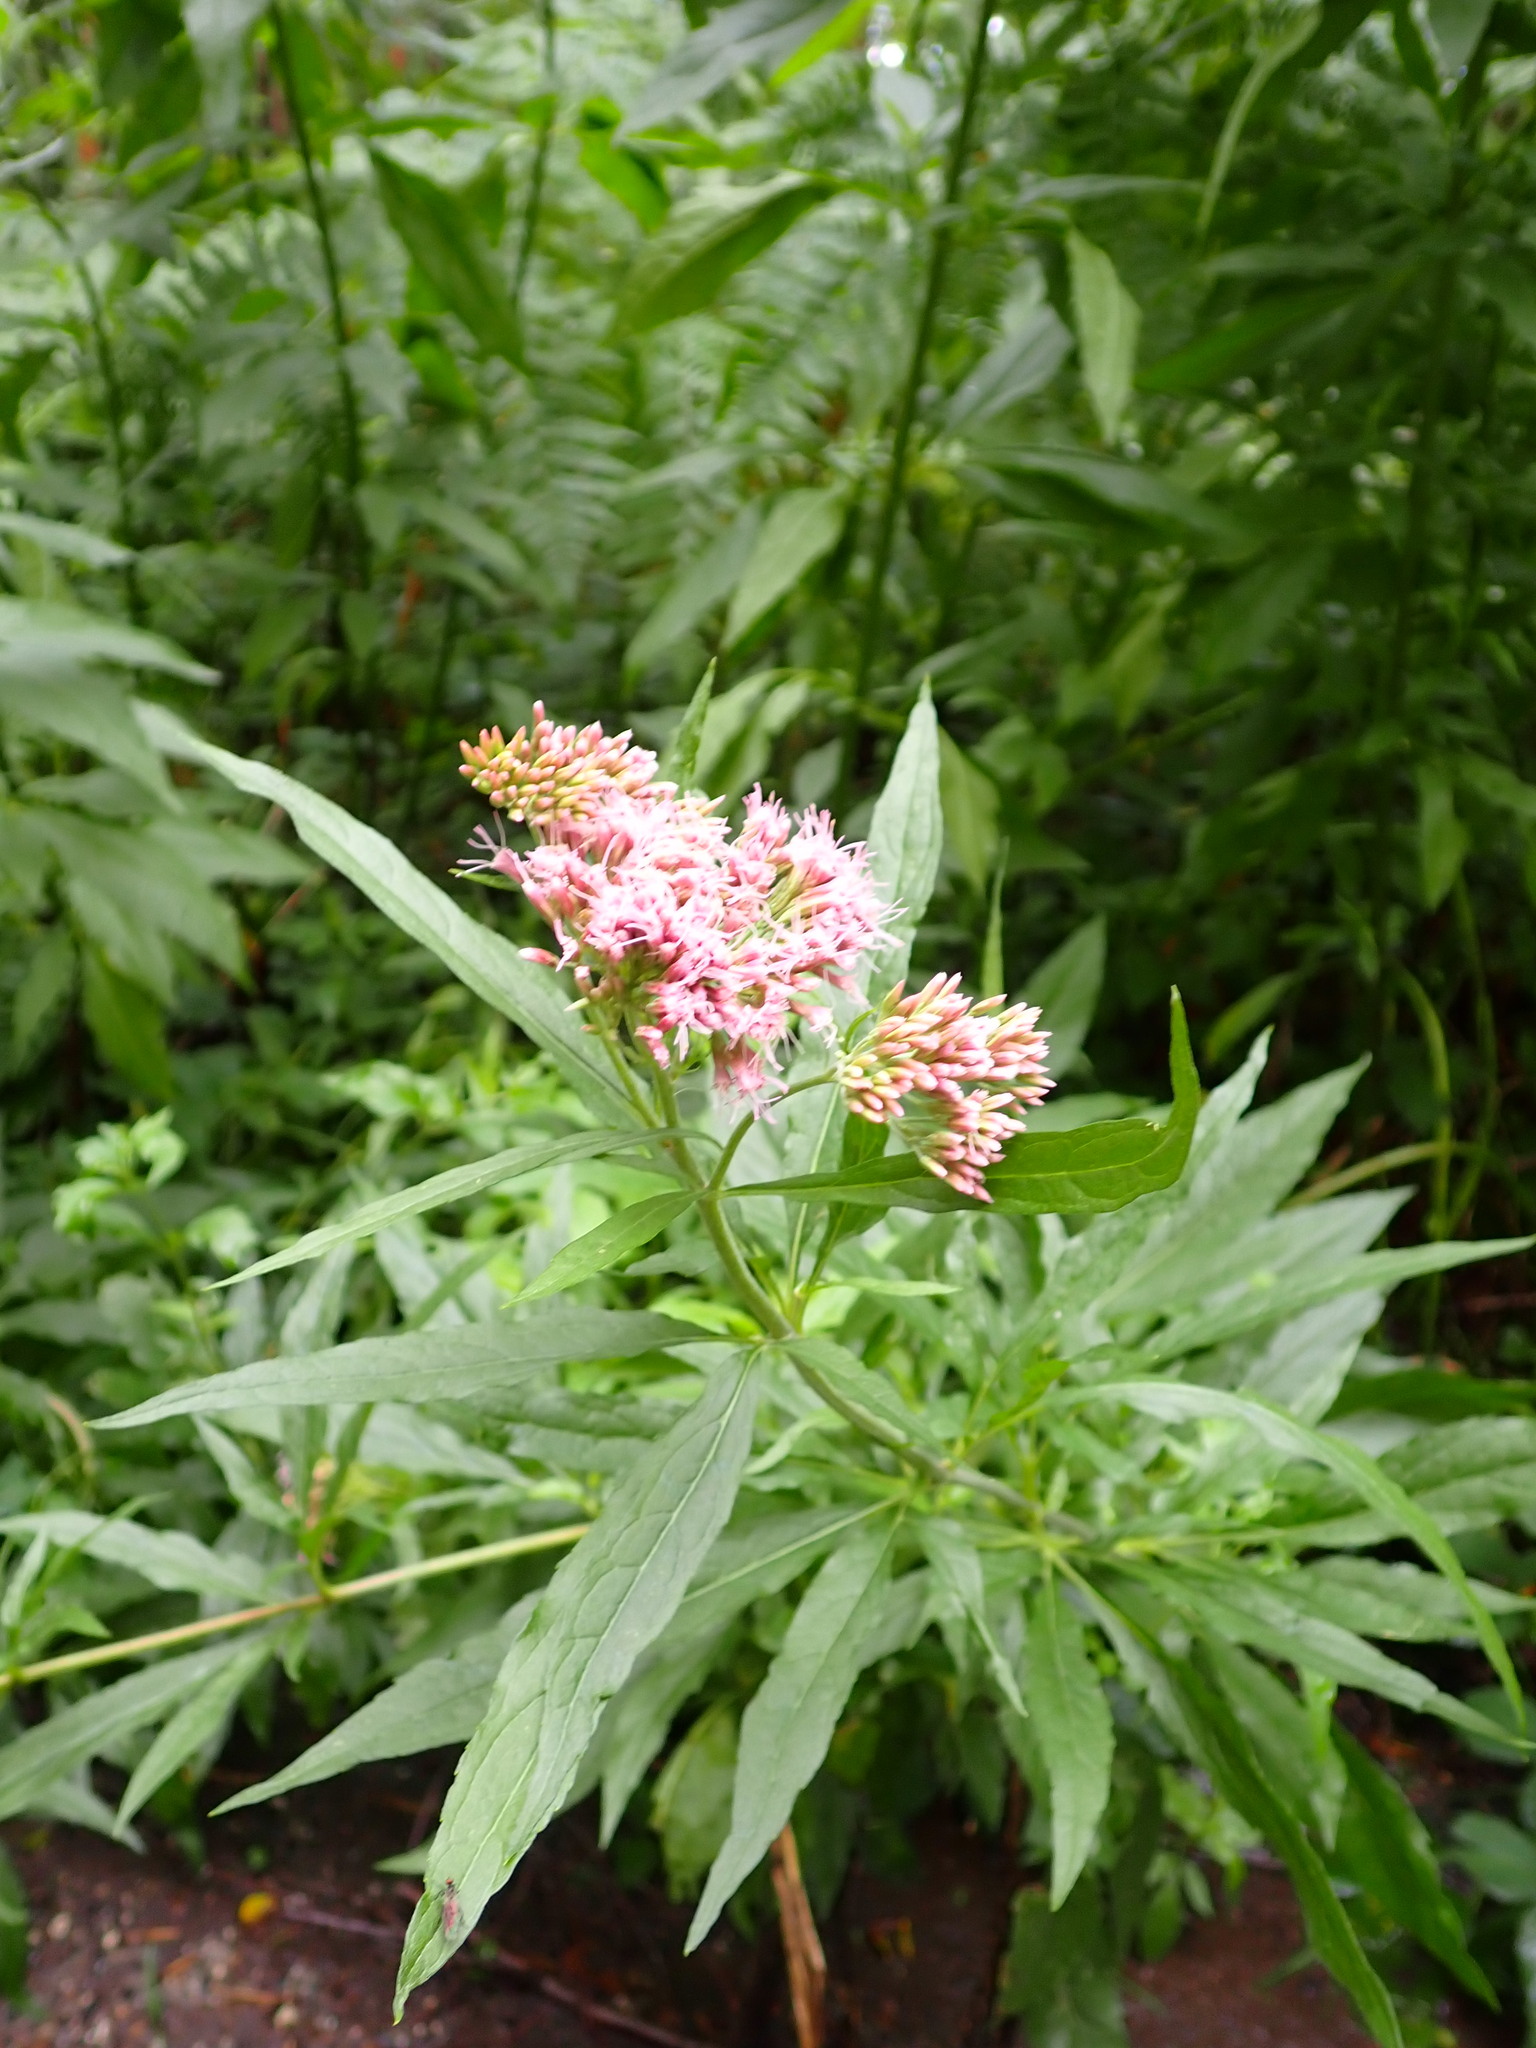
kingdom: Plantae
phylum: Tracheophyta
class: Magnoliopsida
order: Asterales
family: Asteraceae
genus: Eupatorium
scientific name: Eupatorium cannabinum
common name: Hemp-agrimony
